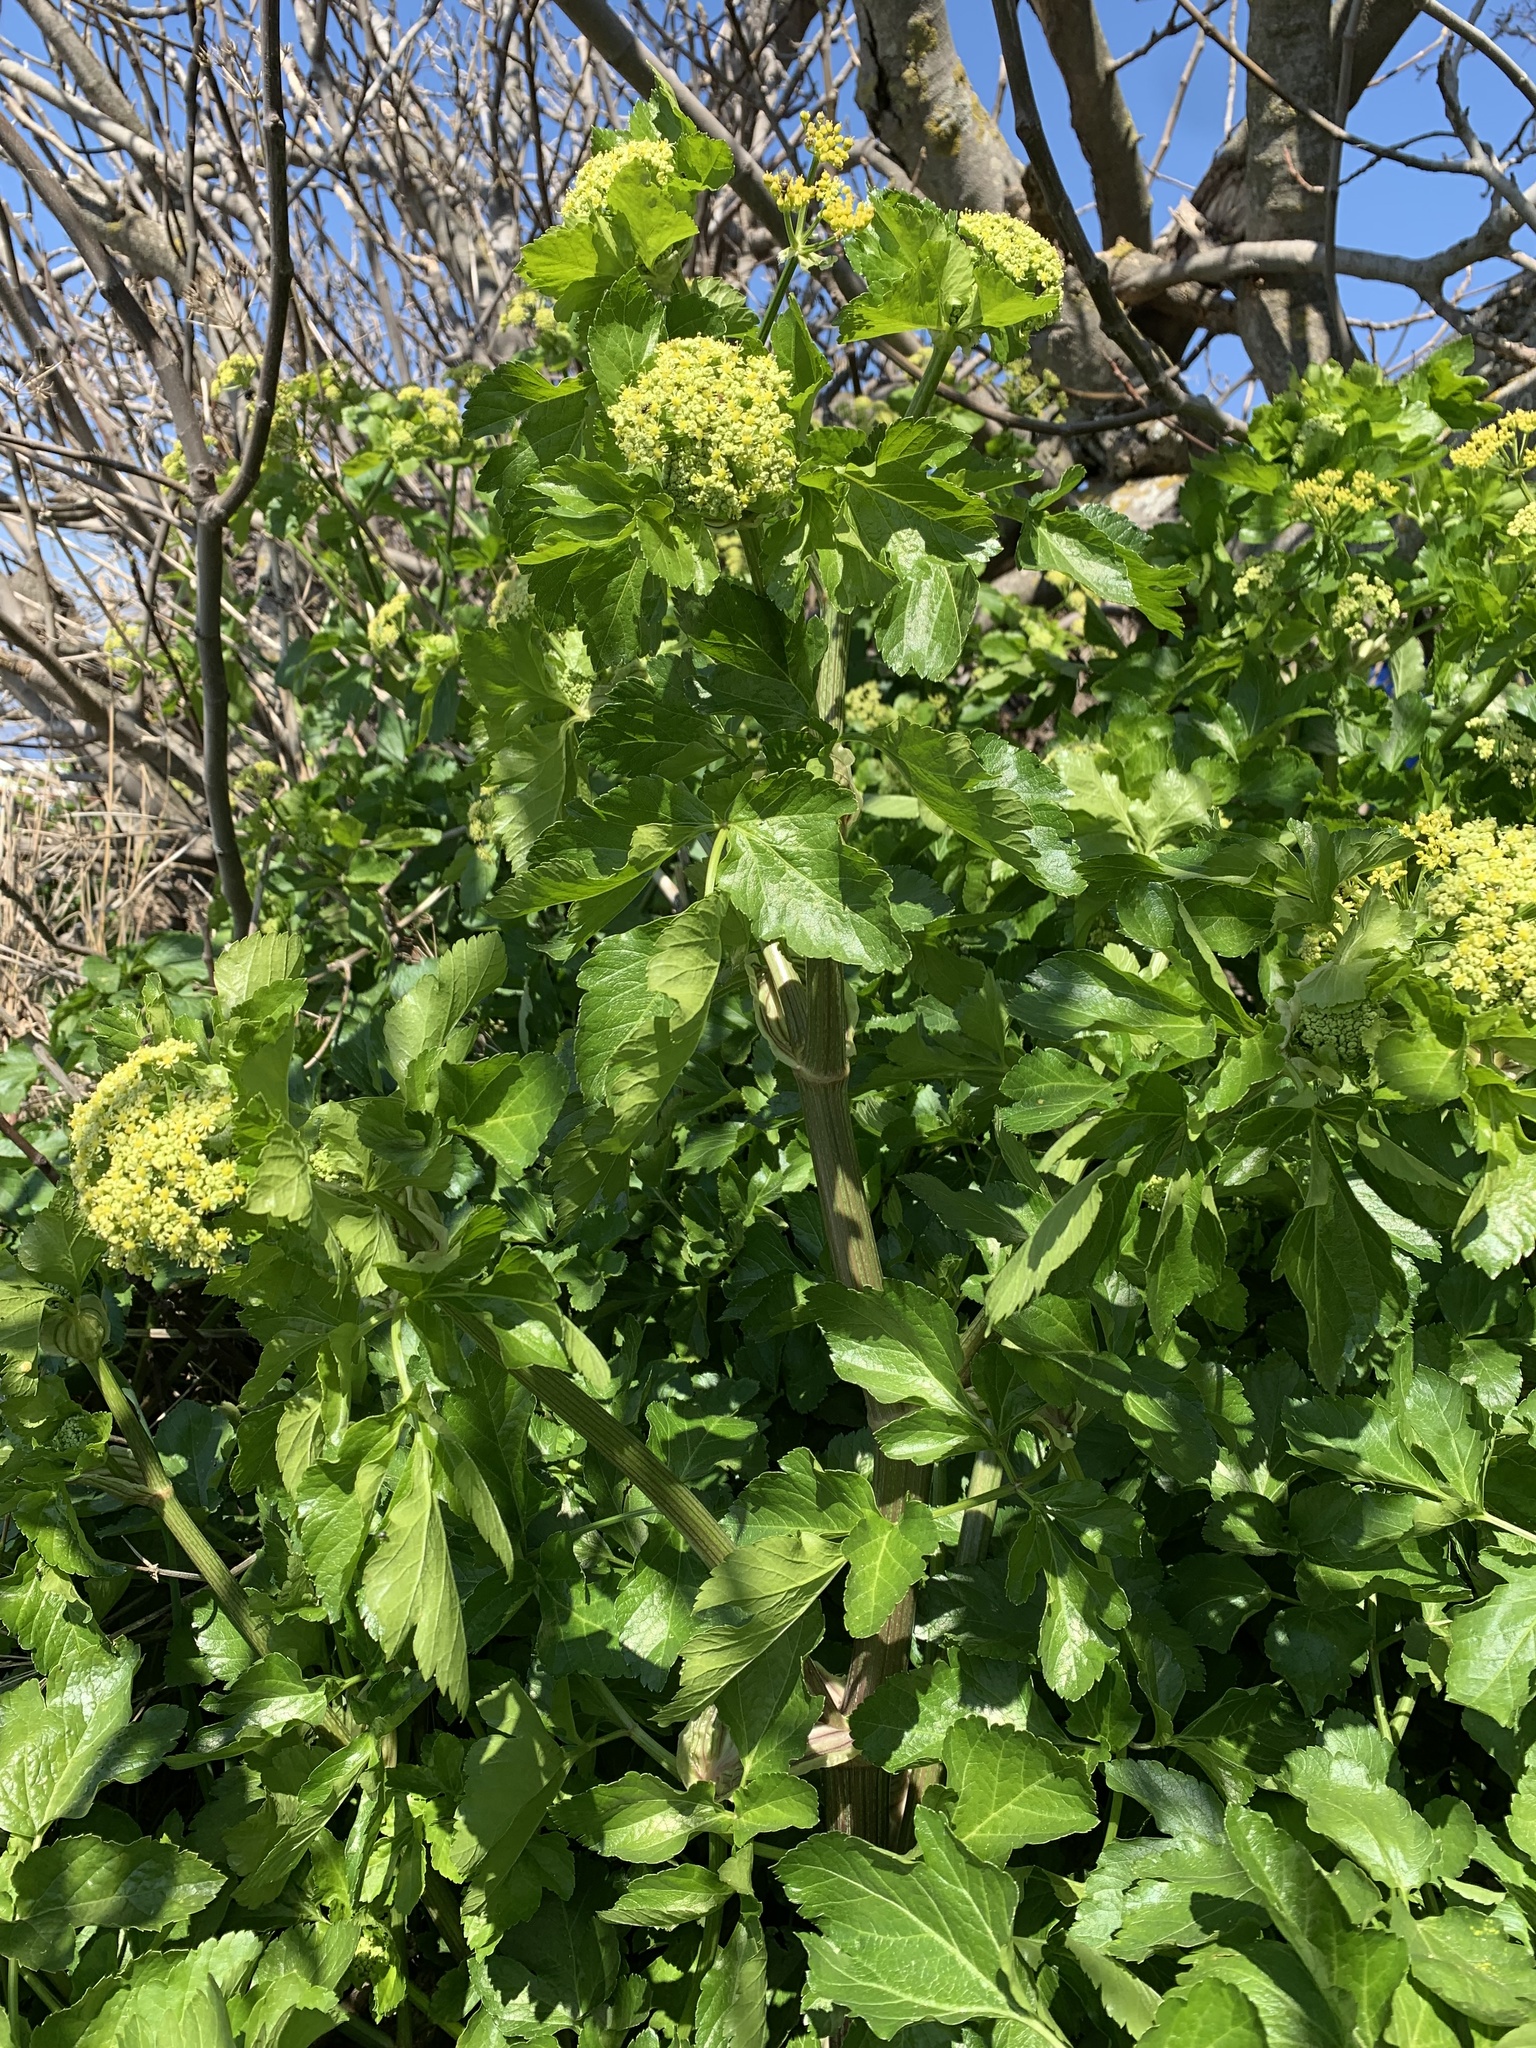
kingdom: Plantae
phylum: Tracheophyta
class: Magnoliopsida
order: Apiales
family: Apiaceae
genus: Smyrnium
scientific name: Smyrnium olusatrum
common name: Alexanders
